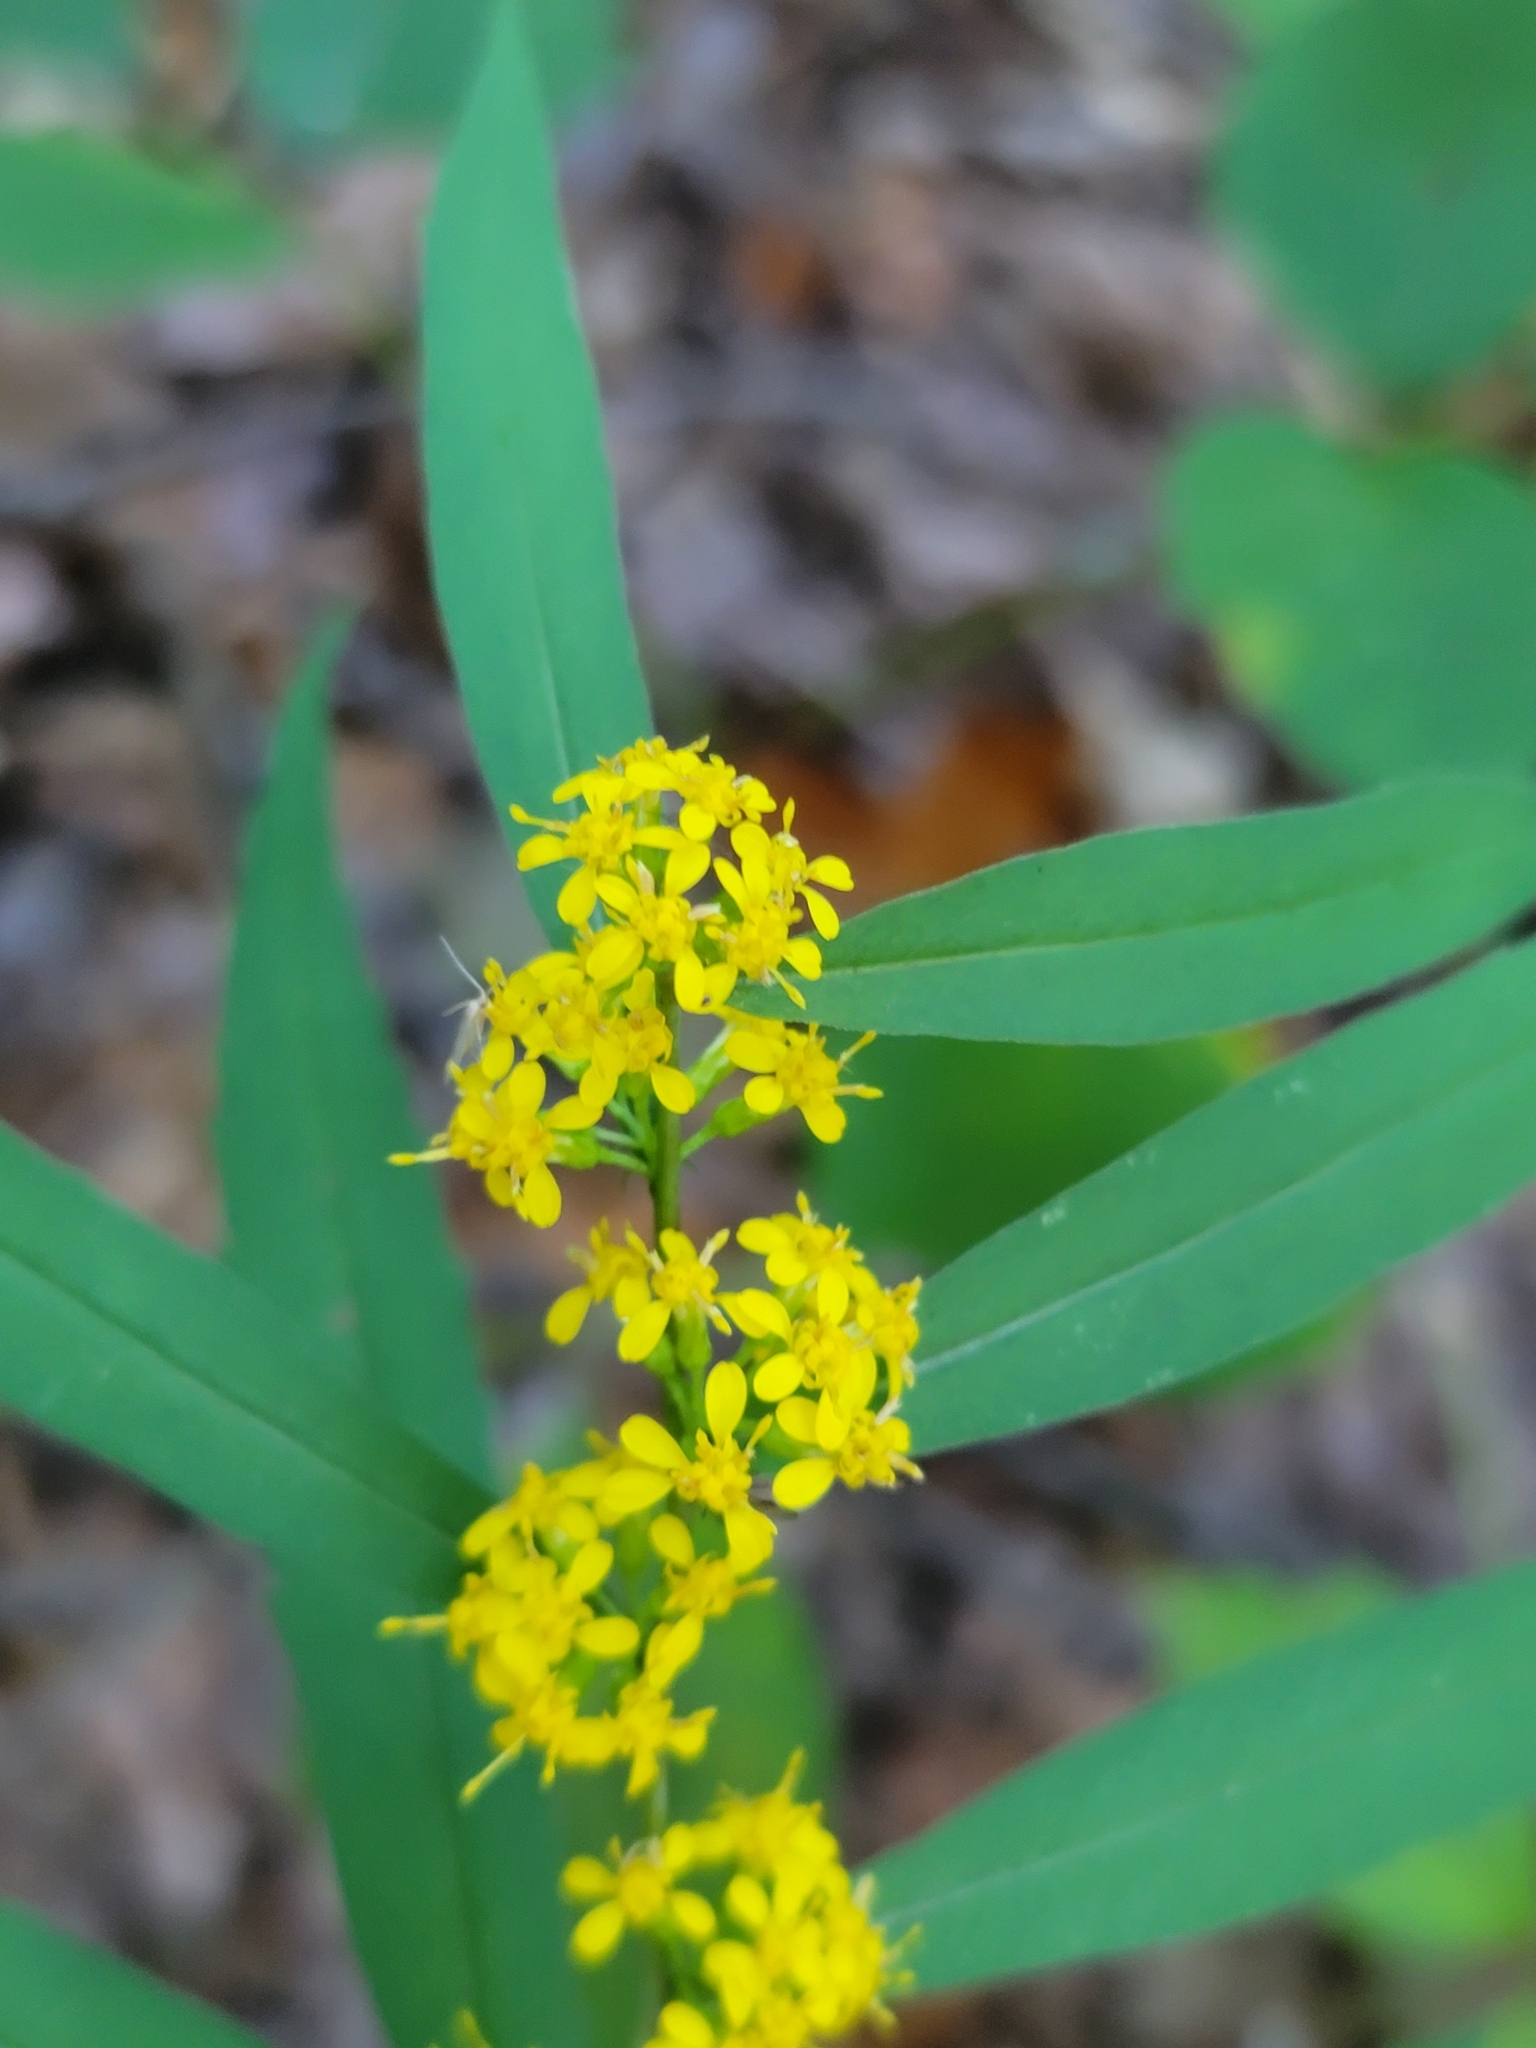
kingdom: Plantae
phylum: Tracheophyta
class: Magnoliopsida
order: Asterales
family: Asteraceae
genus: Solidago
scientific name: Solidago caesia
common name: Woodland goldenrod
